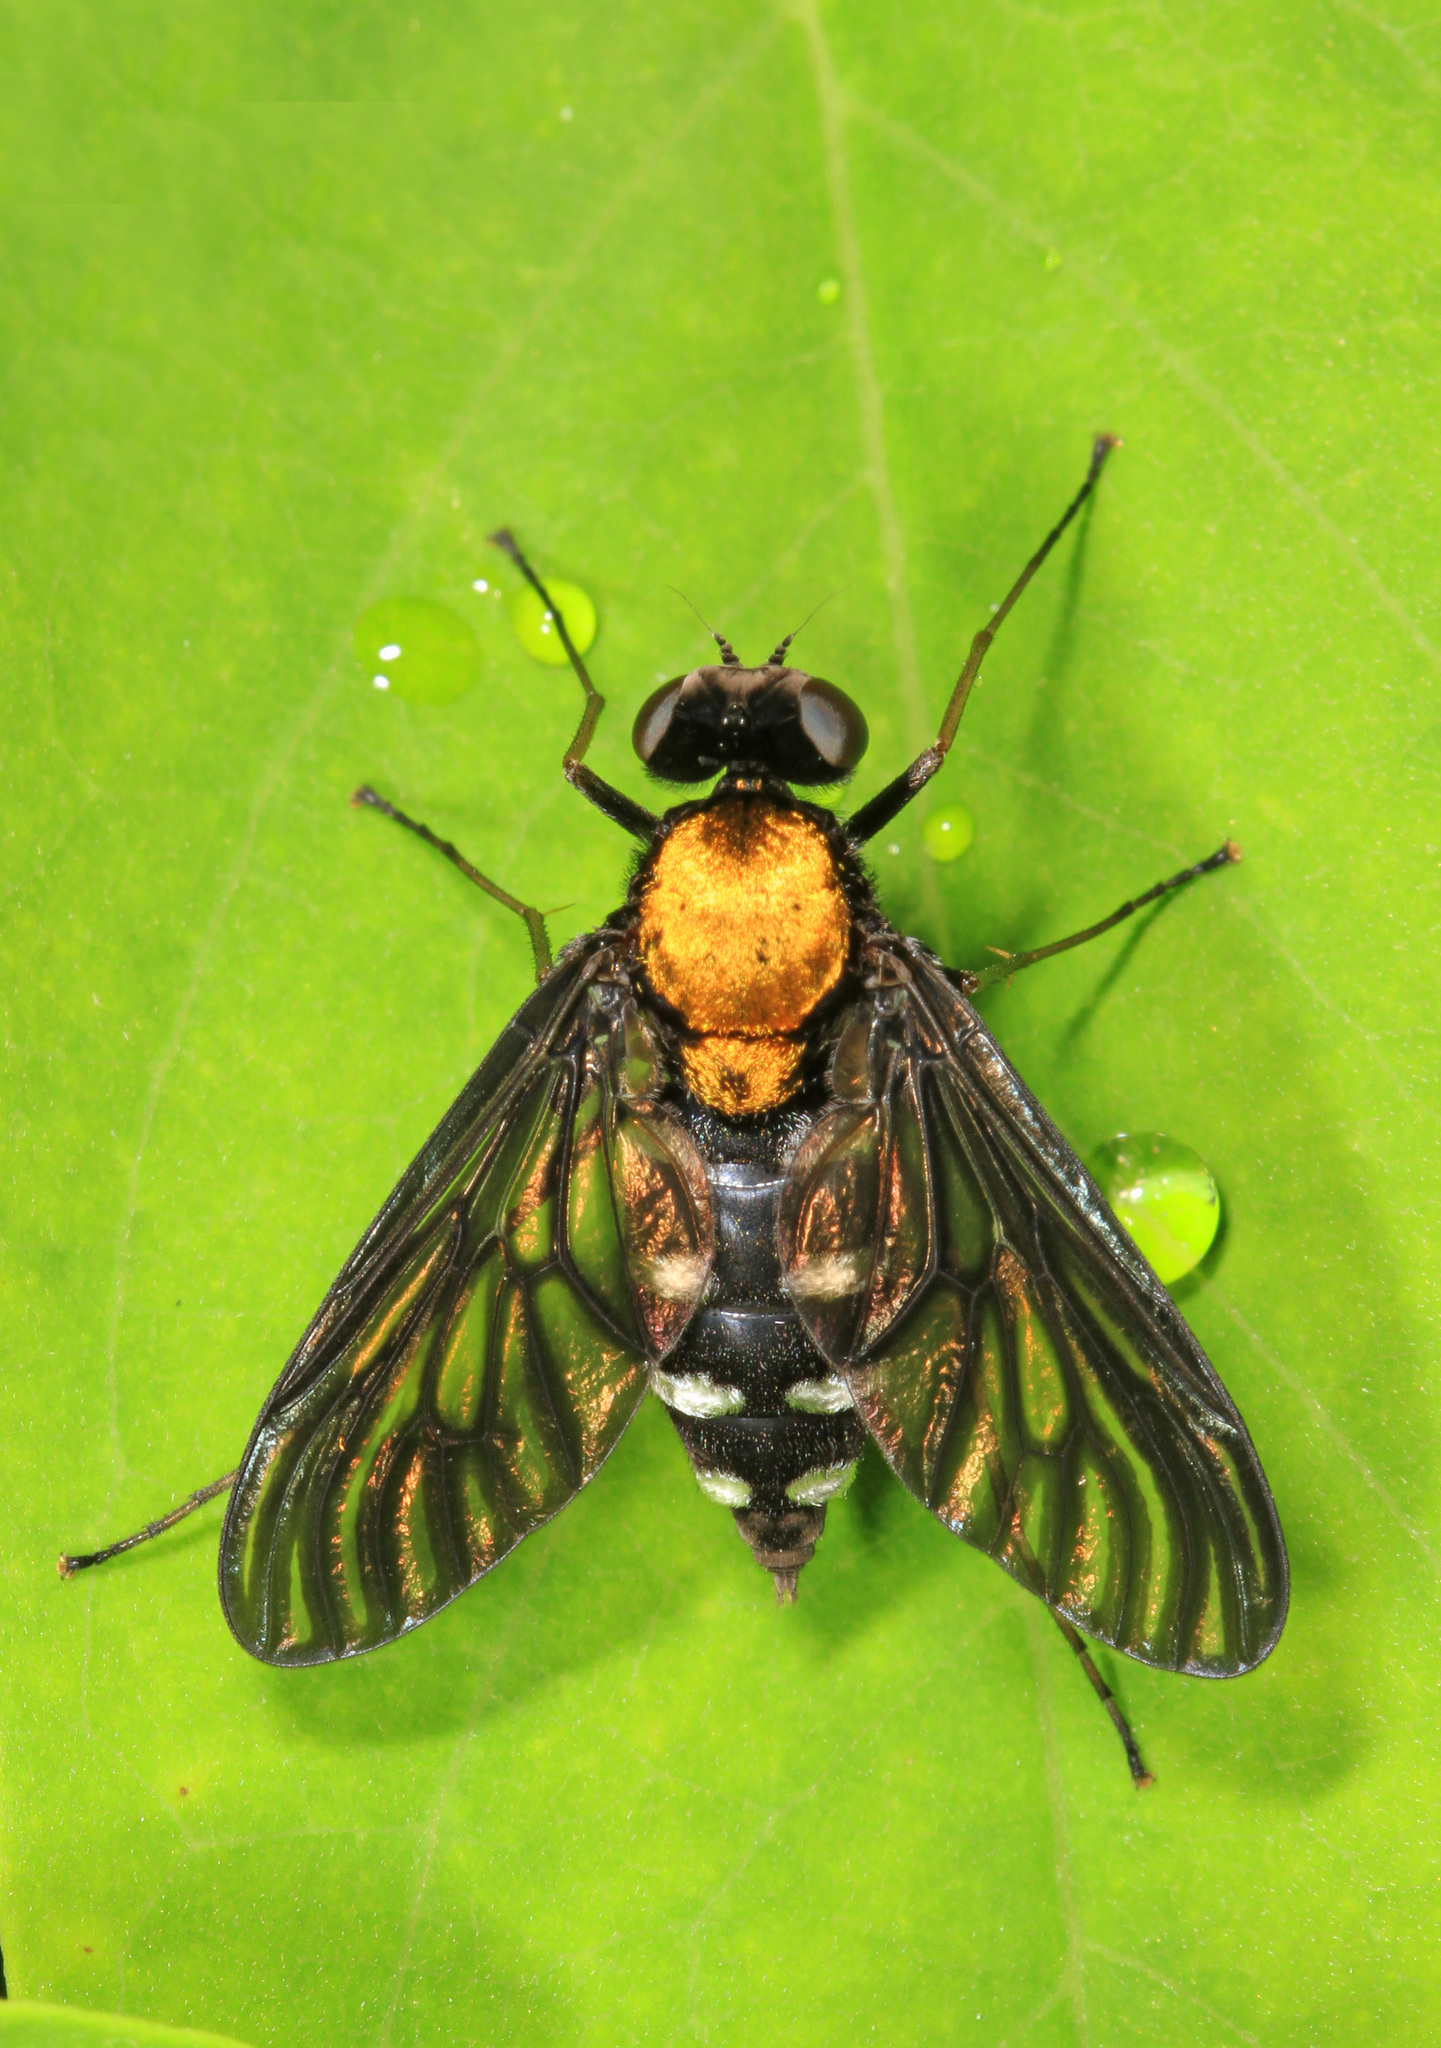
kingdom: Animalia
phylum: Arthropoda
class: Insecta
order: Diptera
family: Rhagionidae
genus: Chrysopilus
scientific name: Chrysopilus thoracicus
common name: Golden-backed snipe fly
